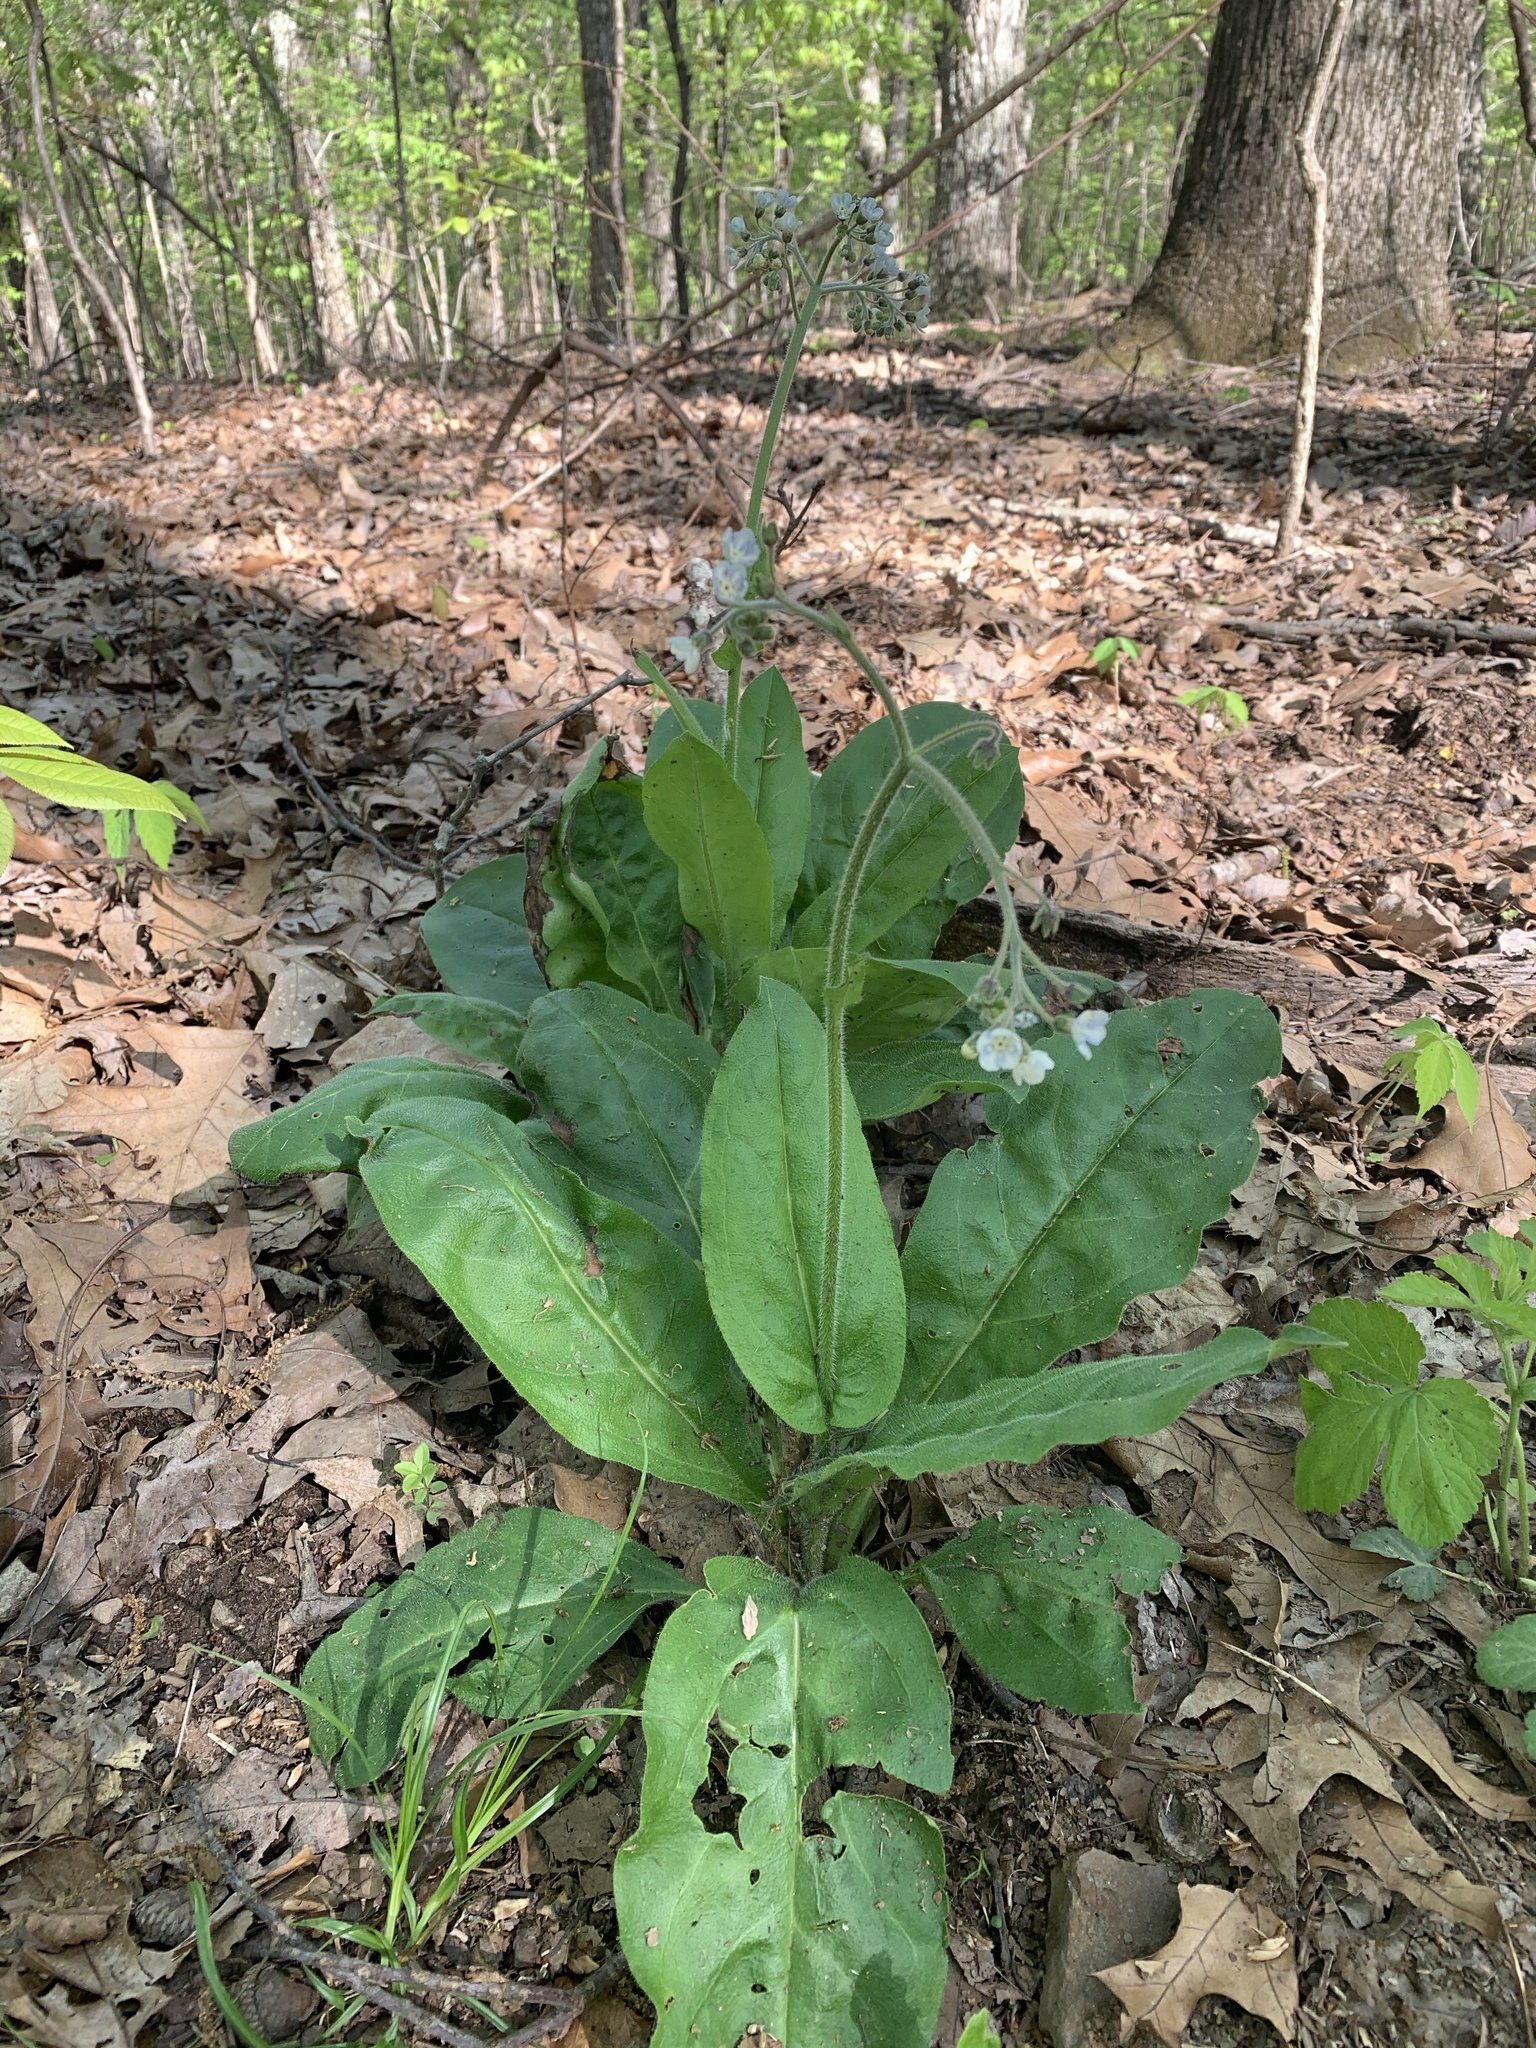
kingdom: Plantae
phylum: Tracheophyta
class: Magnoliopsida
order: Boraginales
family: Boraginaceae
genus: Andersonglossum
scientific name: Andersonglossum virginianum
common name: Wild comfrey
